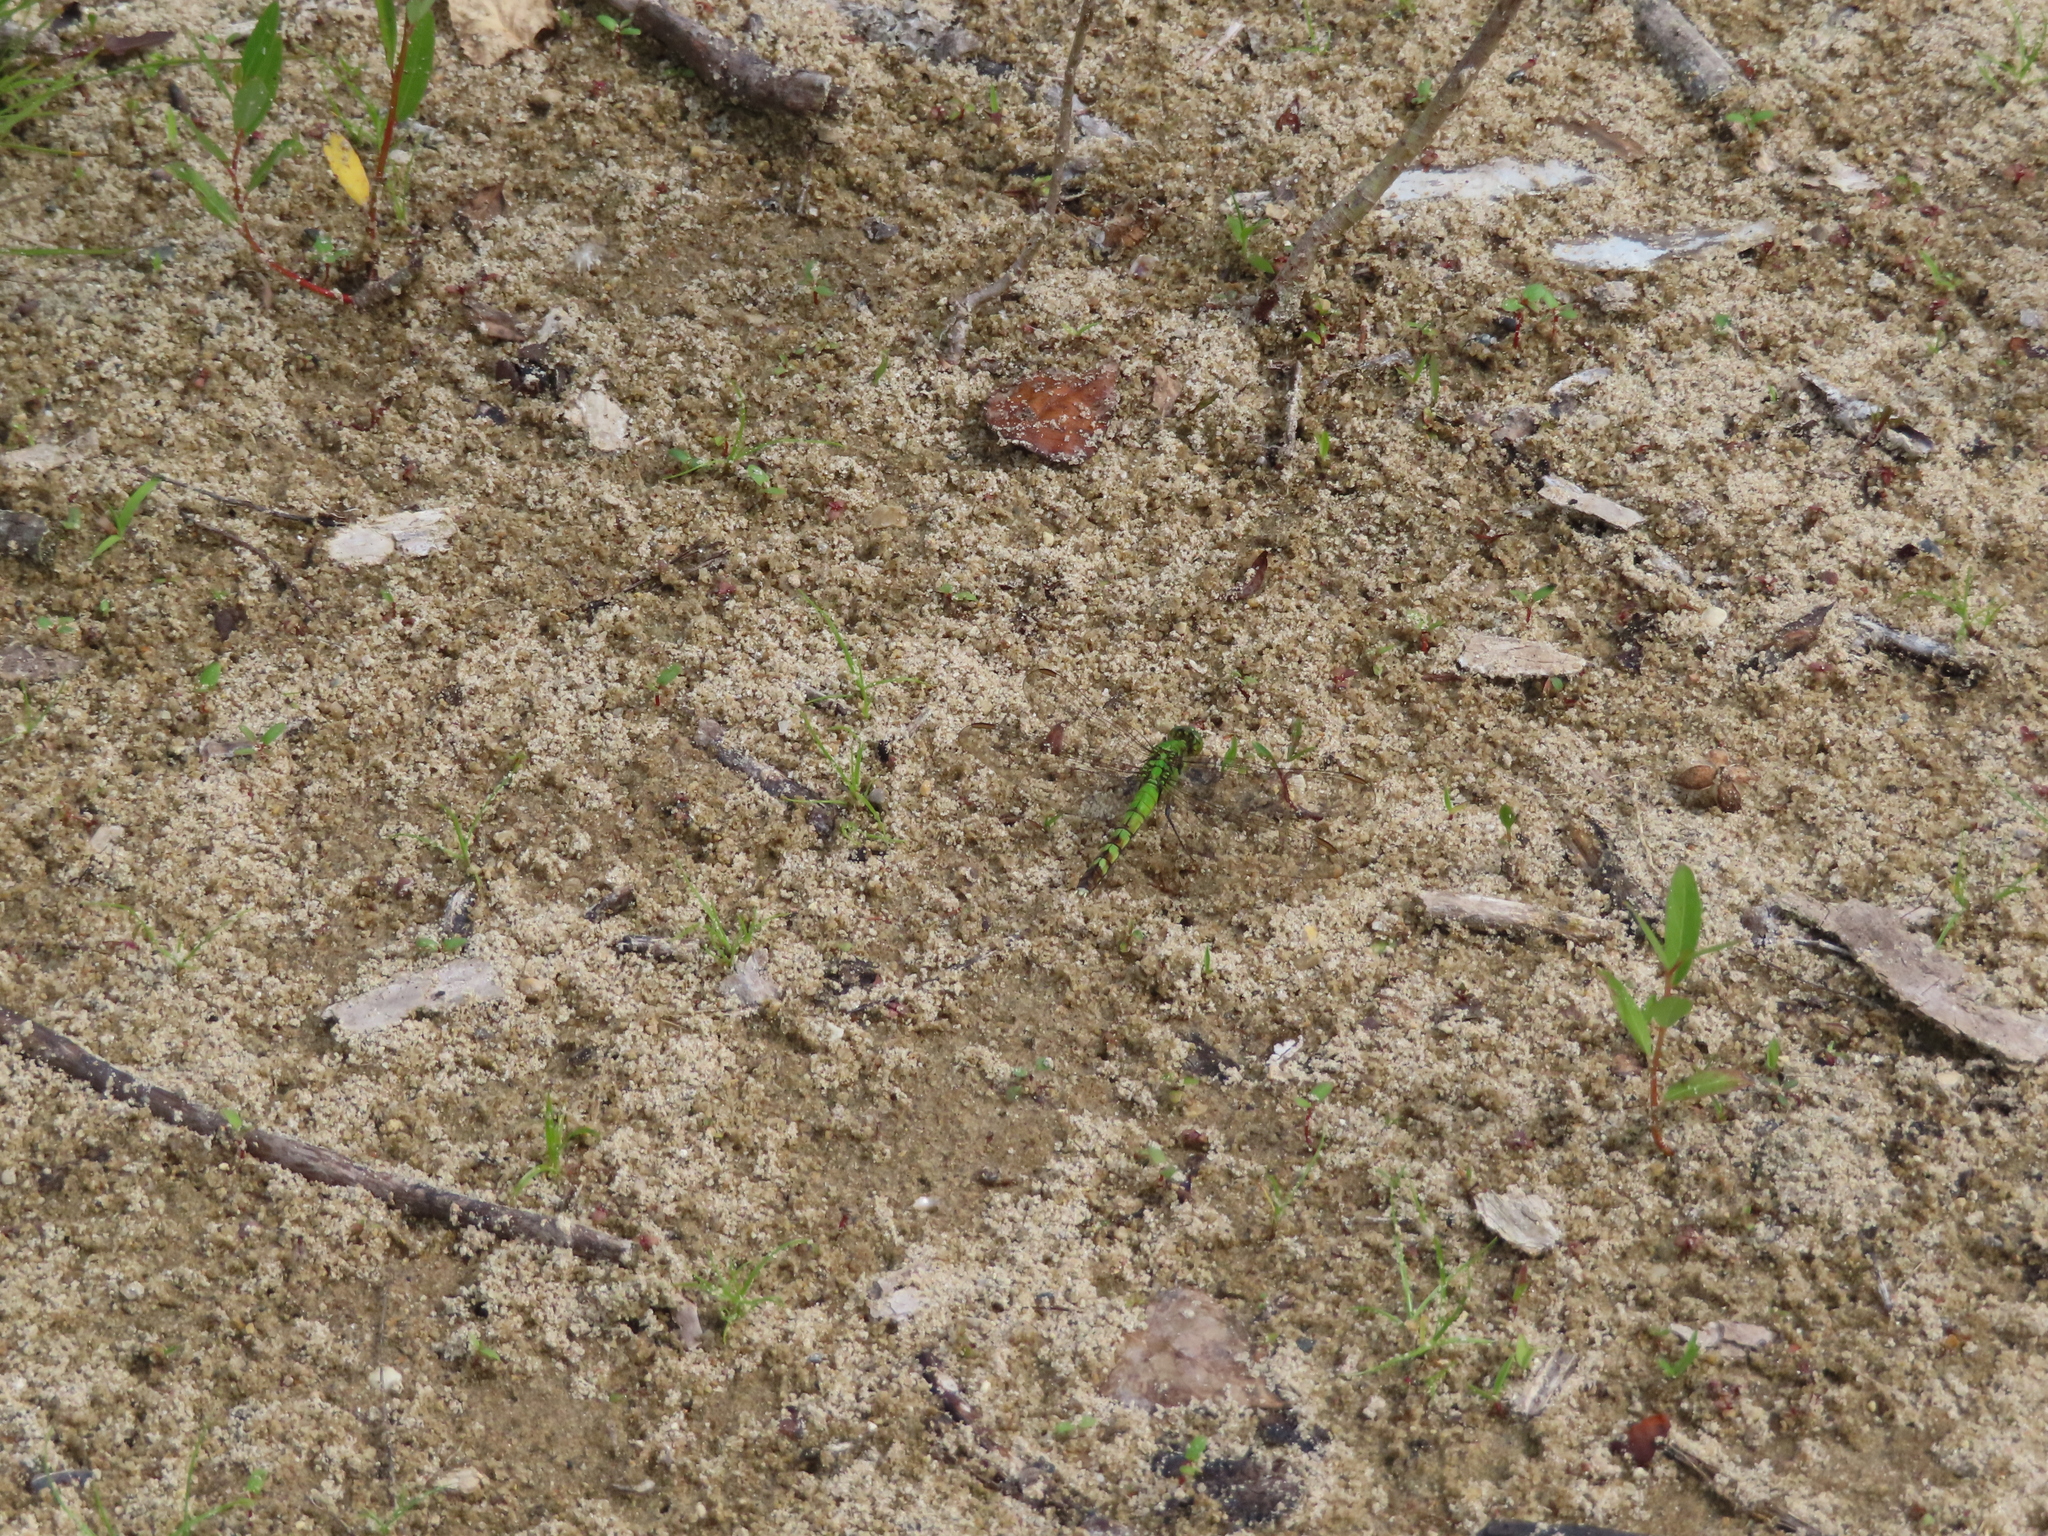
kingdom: Animalia
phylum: Arthropoda
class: Insecta
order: Odonata
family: Libellulidae
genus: Erythemis
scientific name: Erythemis simplicicollis
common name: Eastern pondhawk
